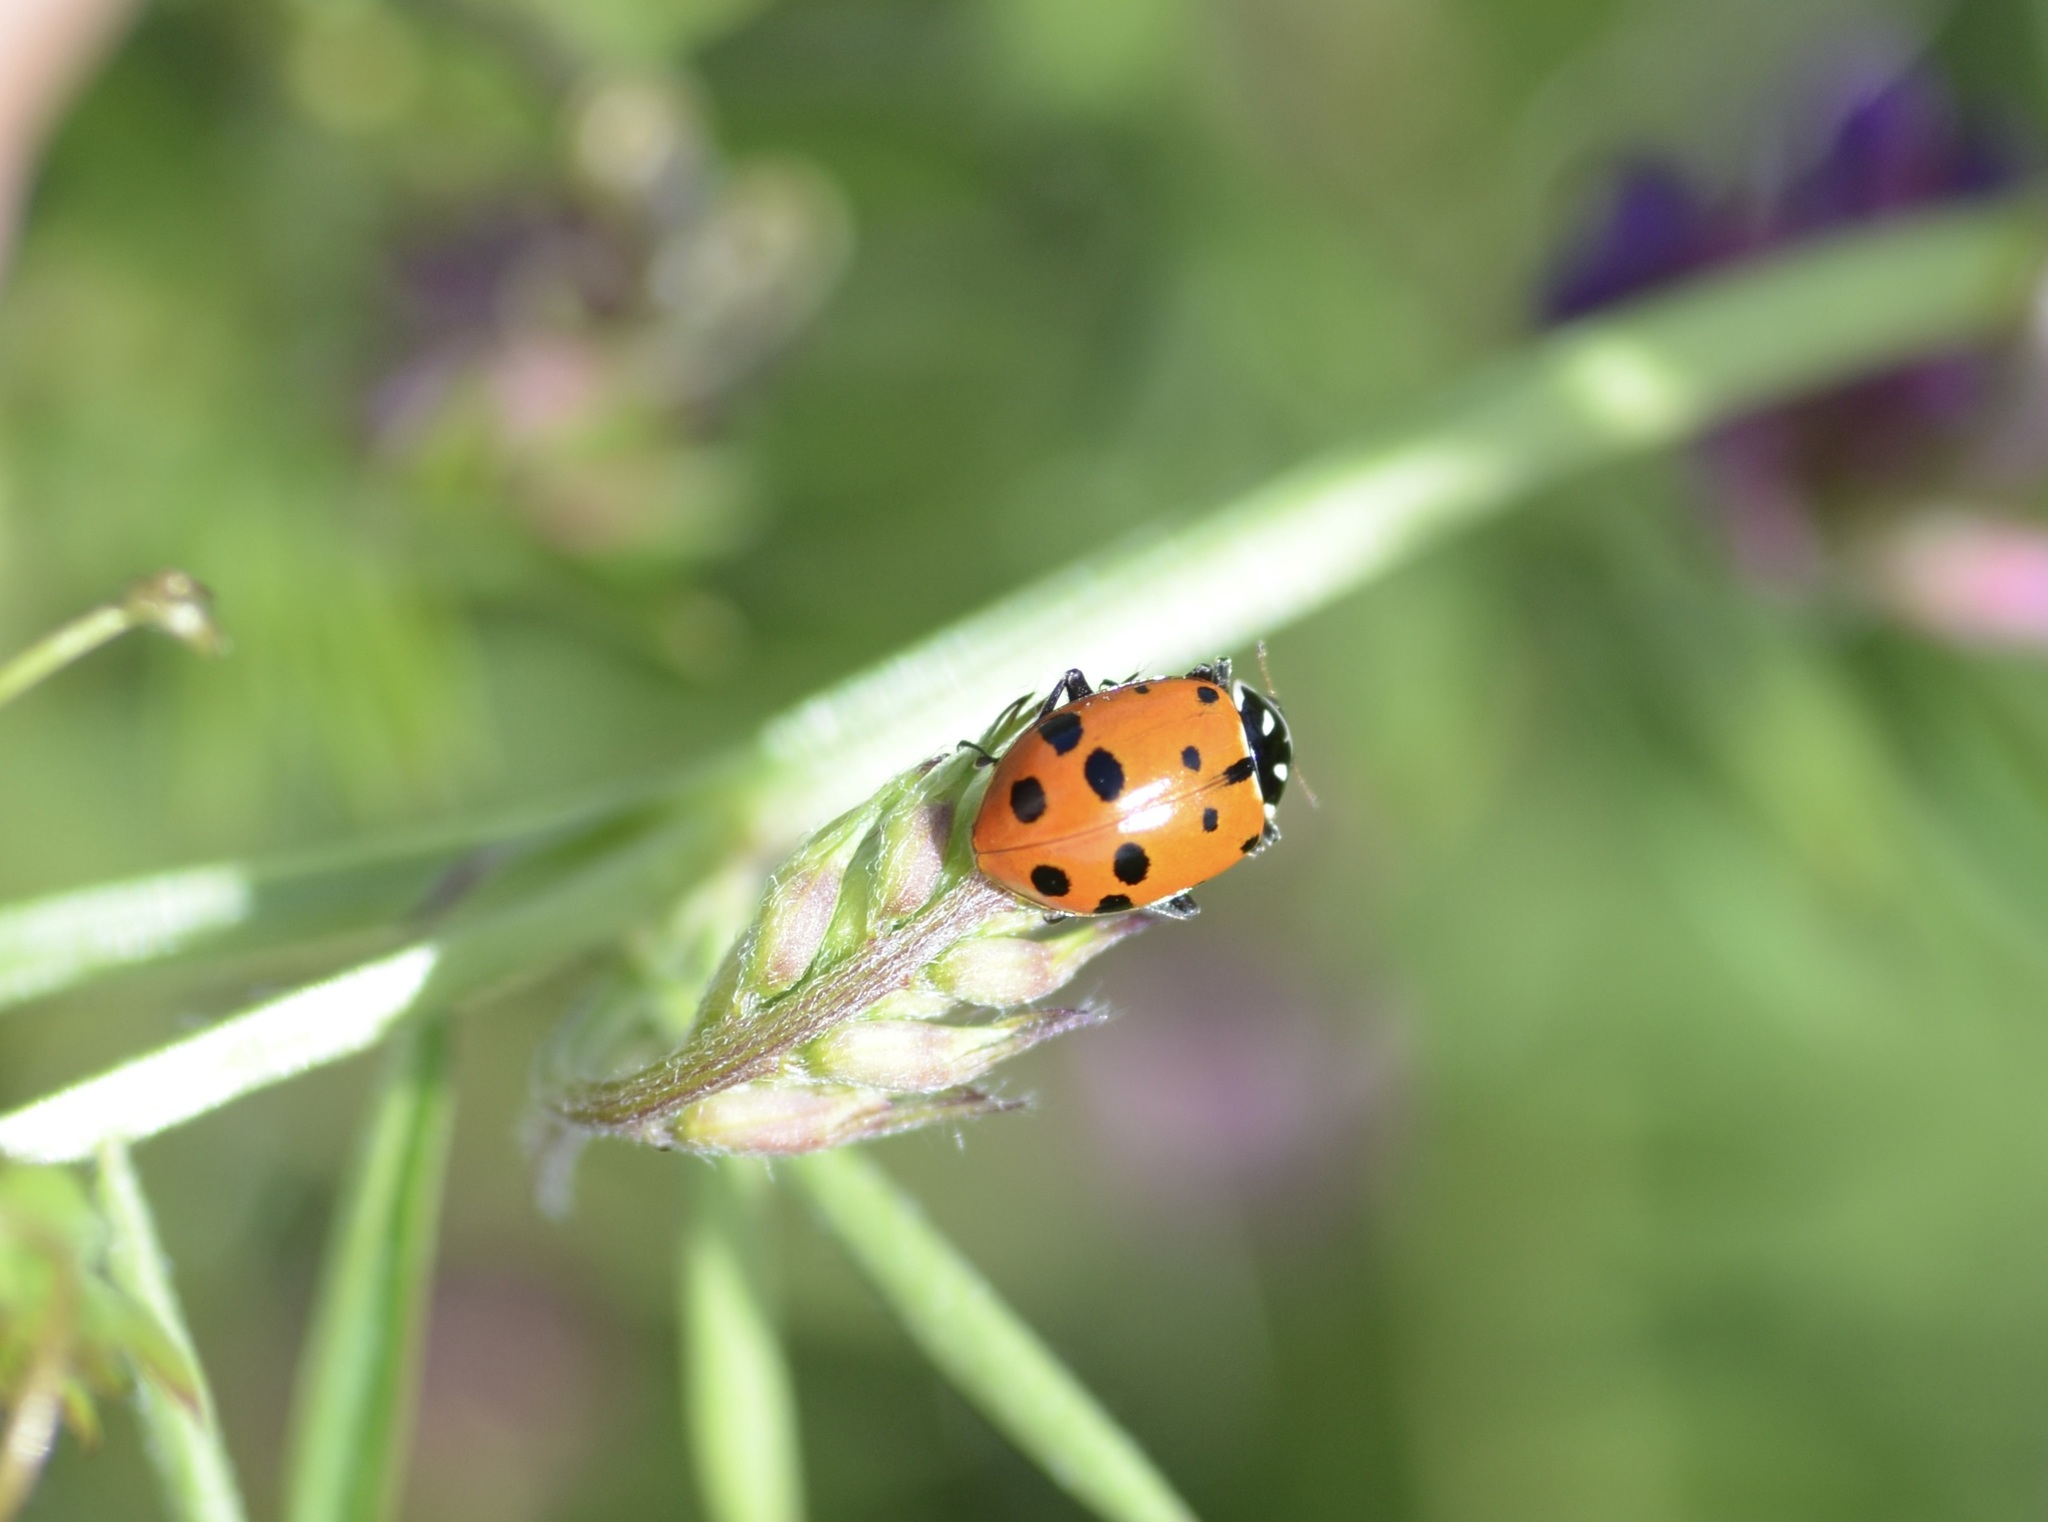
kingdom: Animalia
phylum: Arthropoda
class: Insecta
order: Coleoptera
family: Coccinellidae
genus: Hippodamia
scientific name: Hippodamia convergens
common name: Convergent lady beetle
